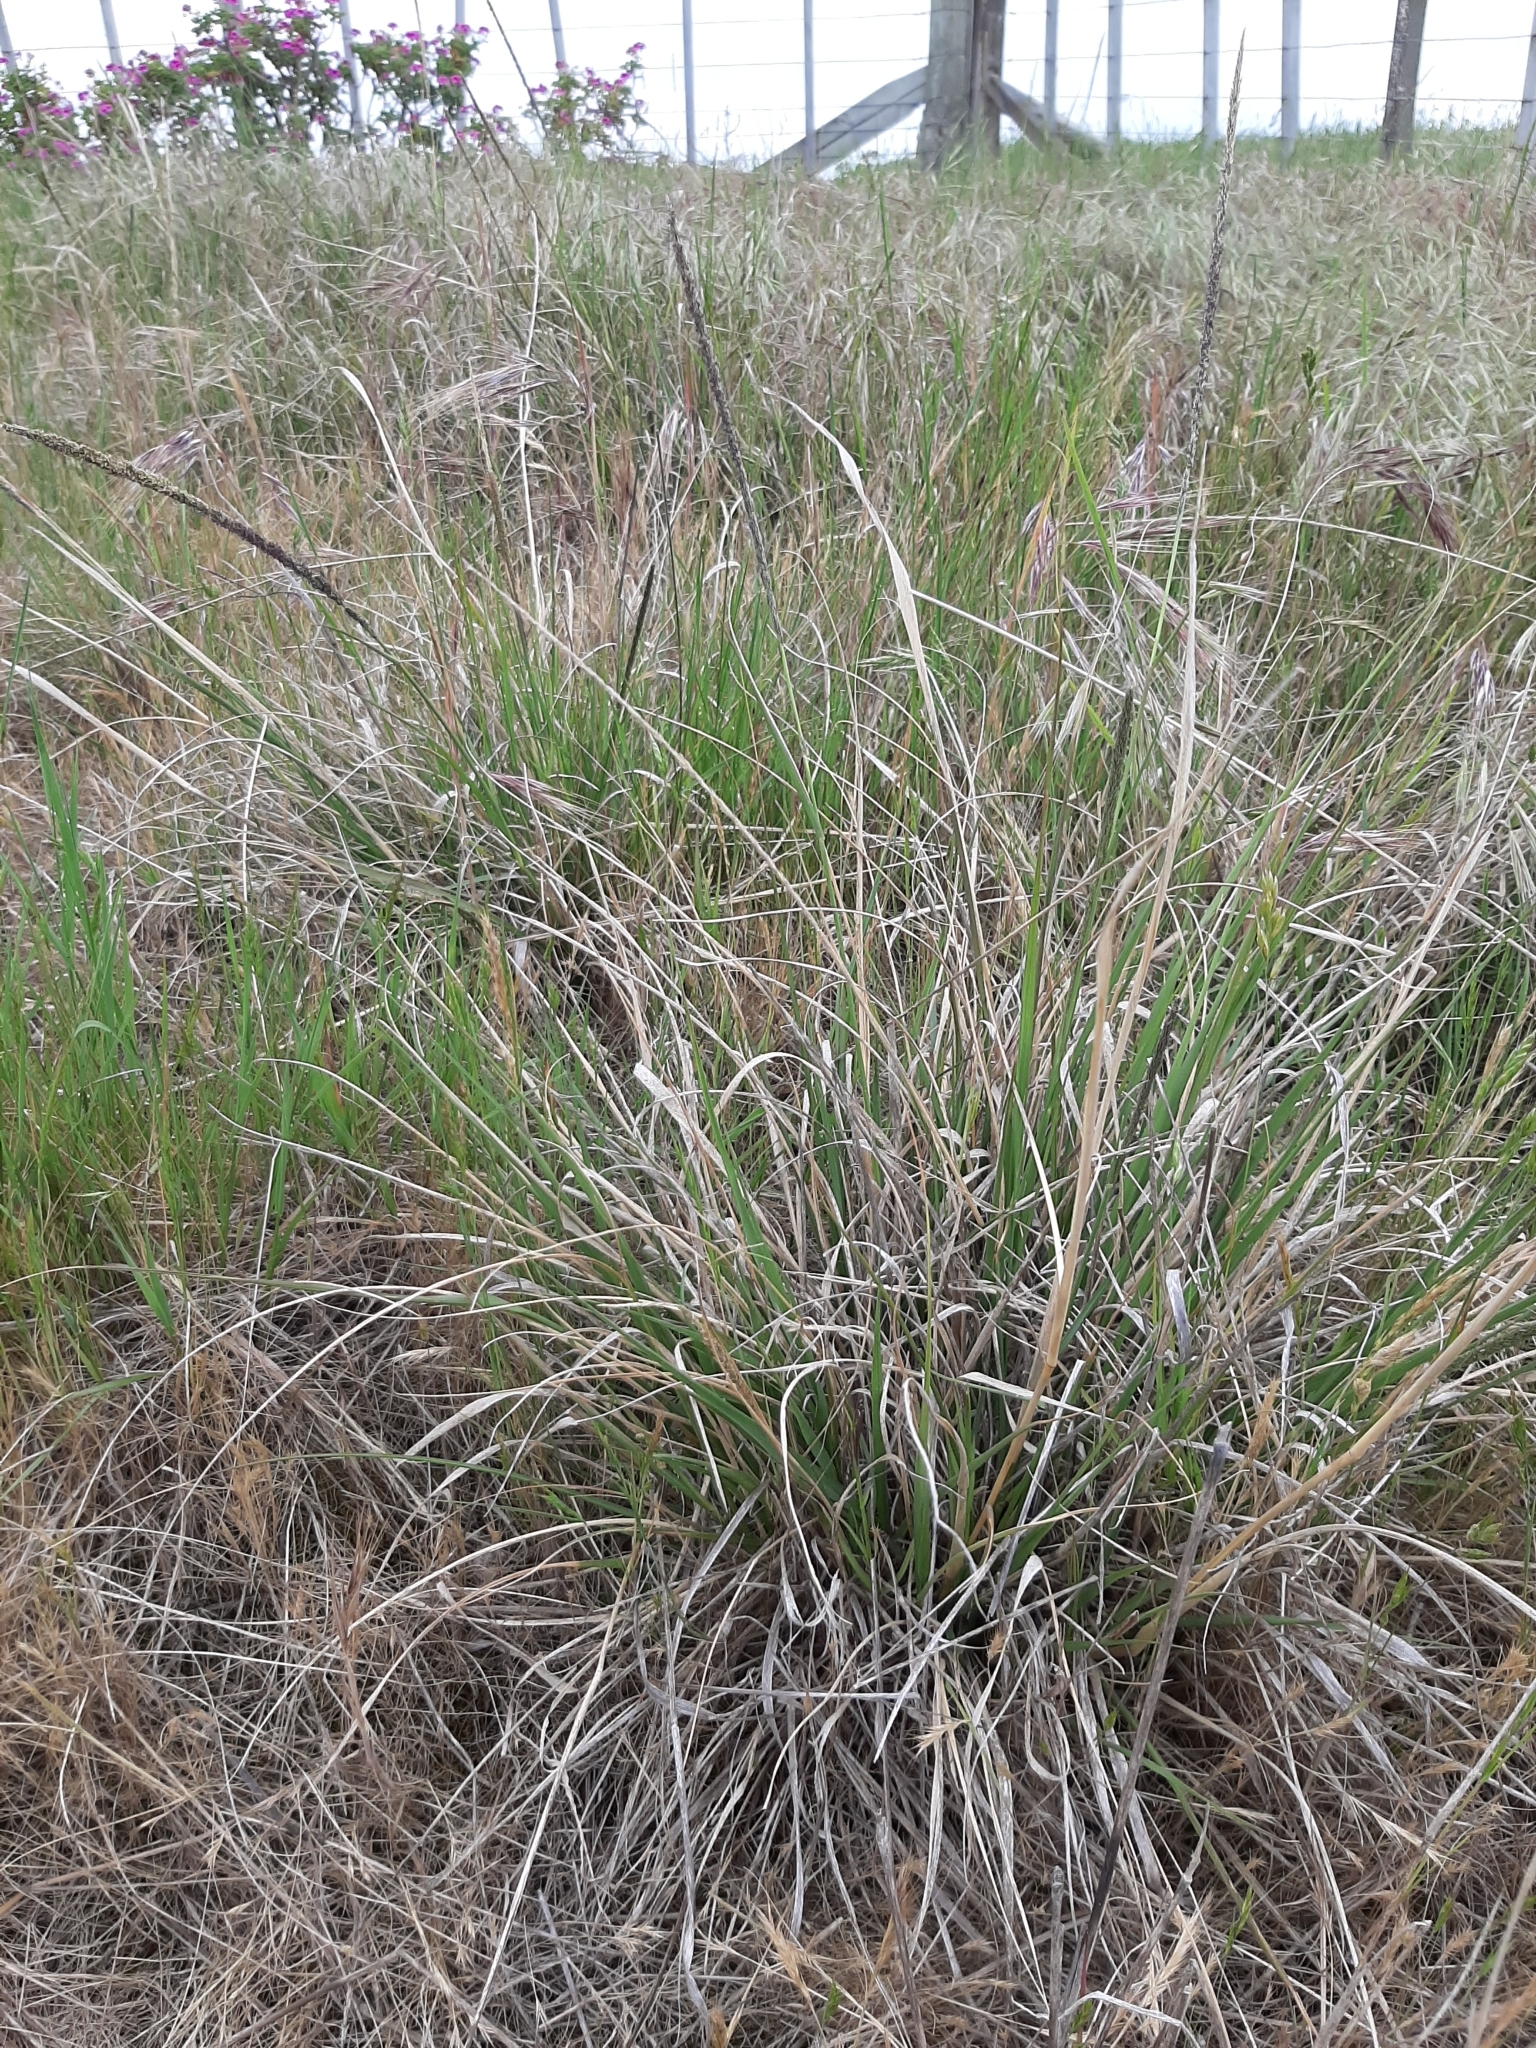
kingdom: Plantae
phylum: Tracheophyta
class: Liliopsida
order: Poales
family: Poaceae
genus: Sporobolus
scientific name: Sporobolus africanus
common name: African dropseed
